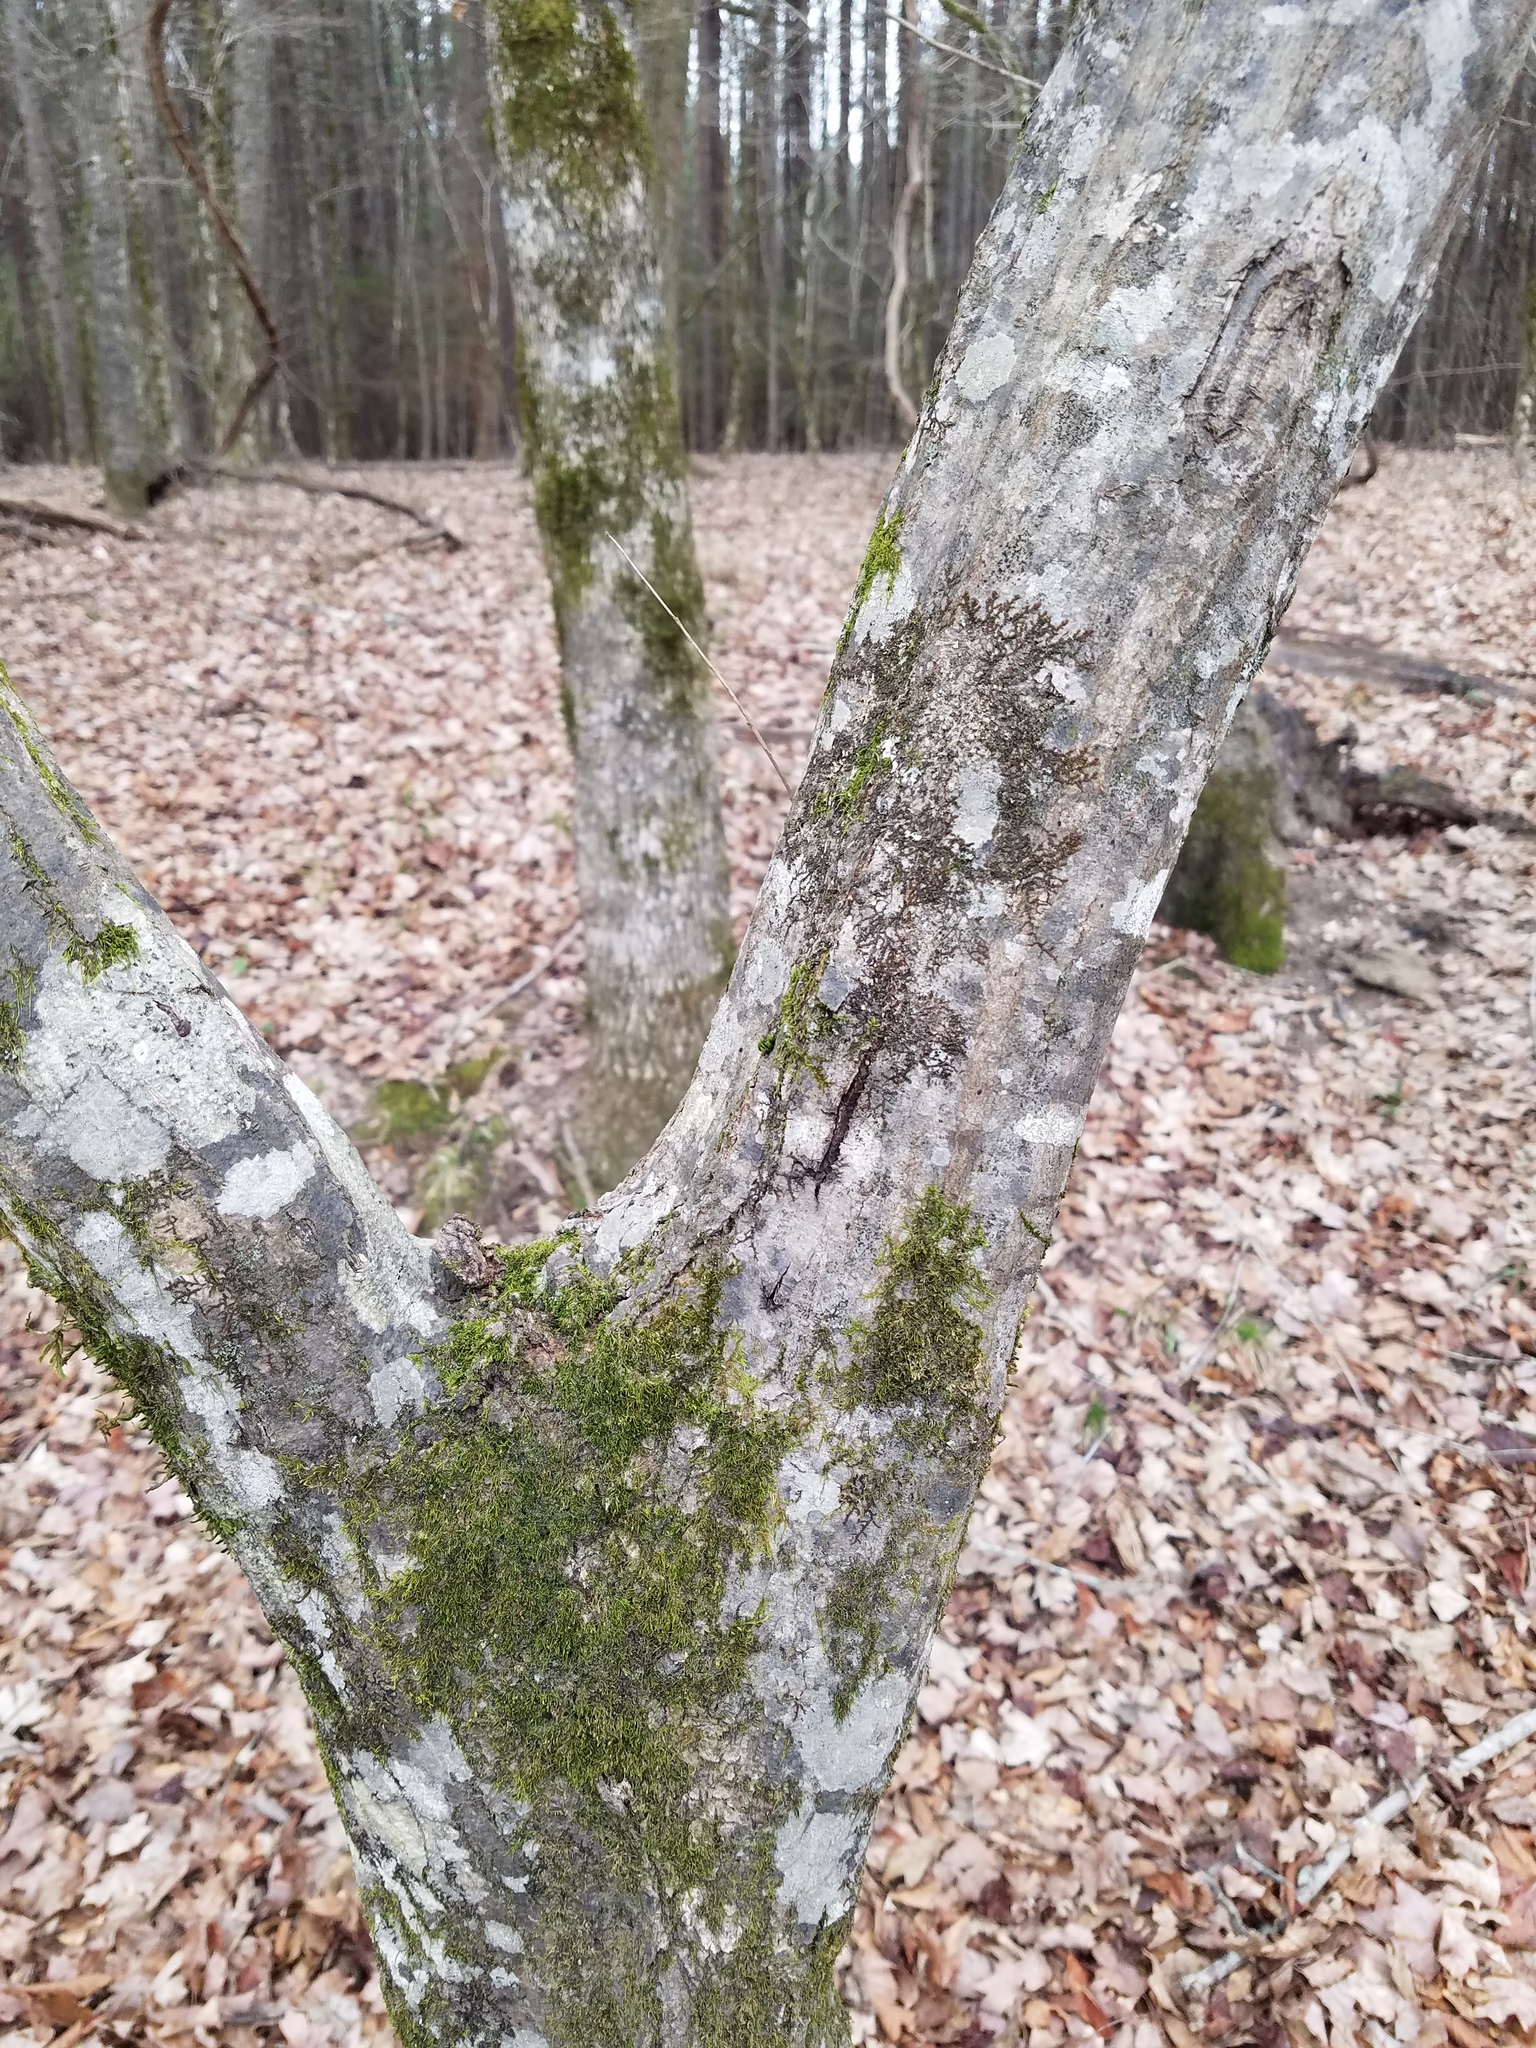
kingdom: Plantae
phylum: Tracheophyta
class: Magnoliopsida
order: Fagales
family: Betulaceae
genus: Carpinus
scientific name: Carpinus caroliniana
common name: American hornbeam
